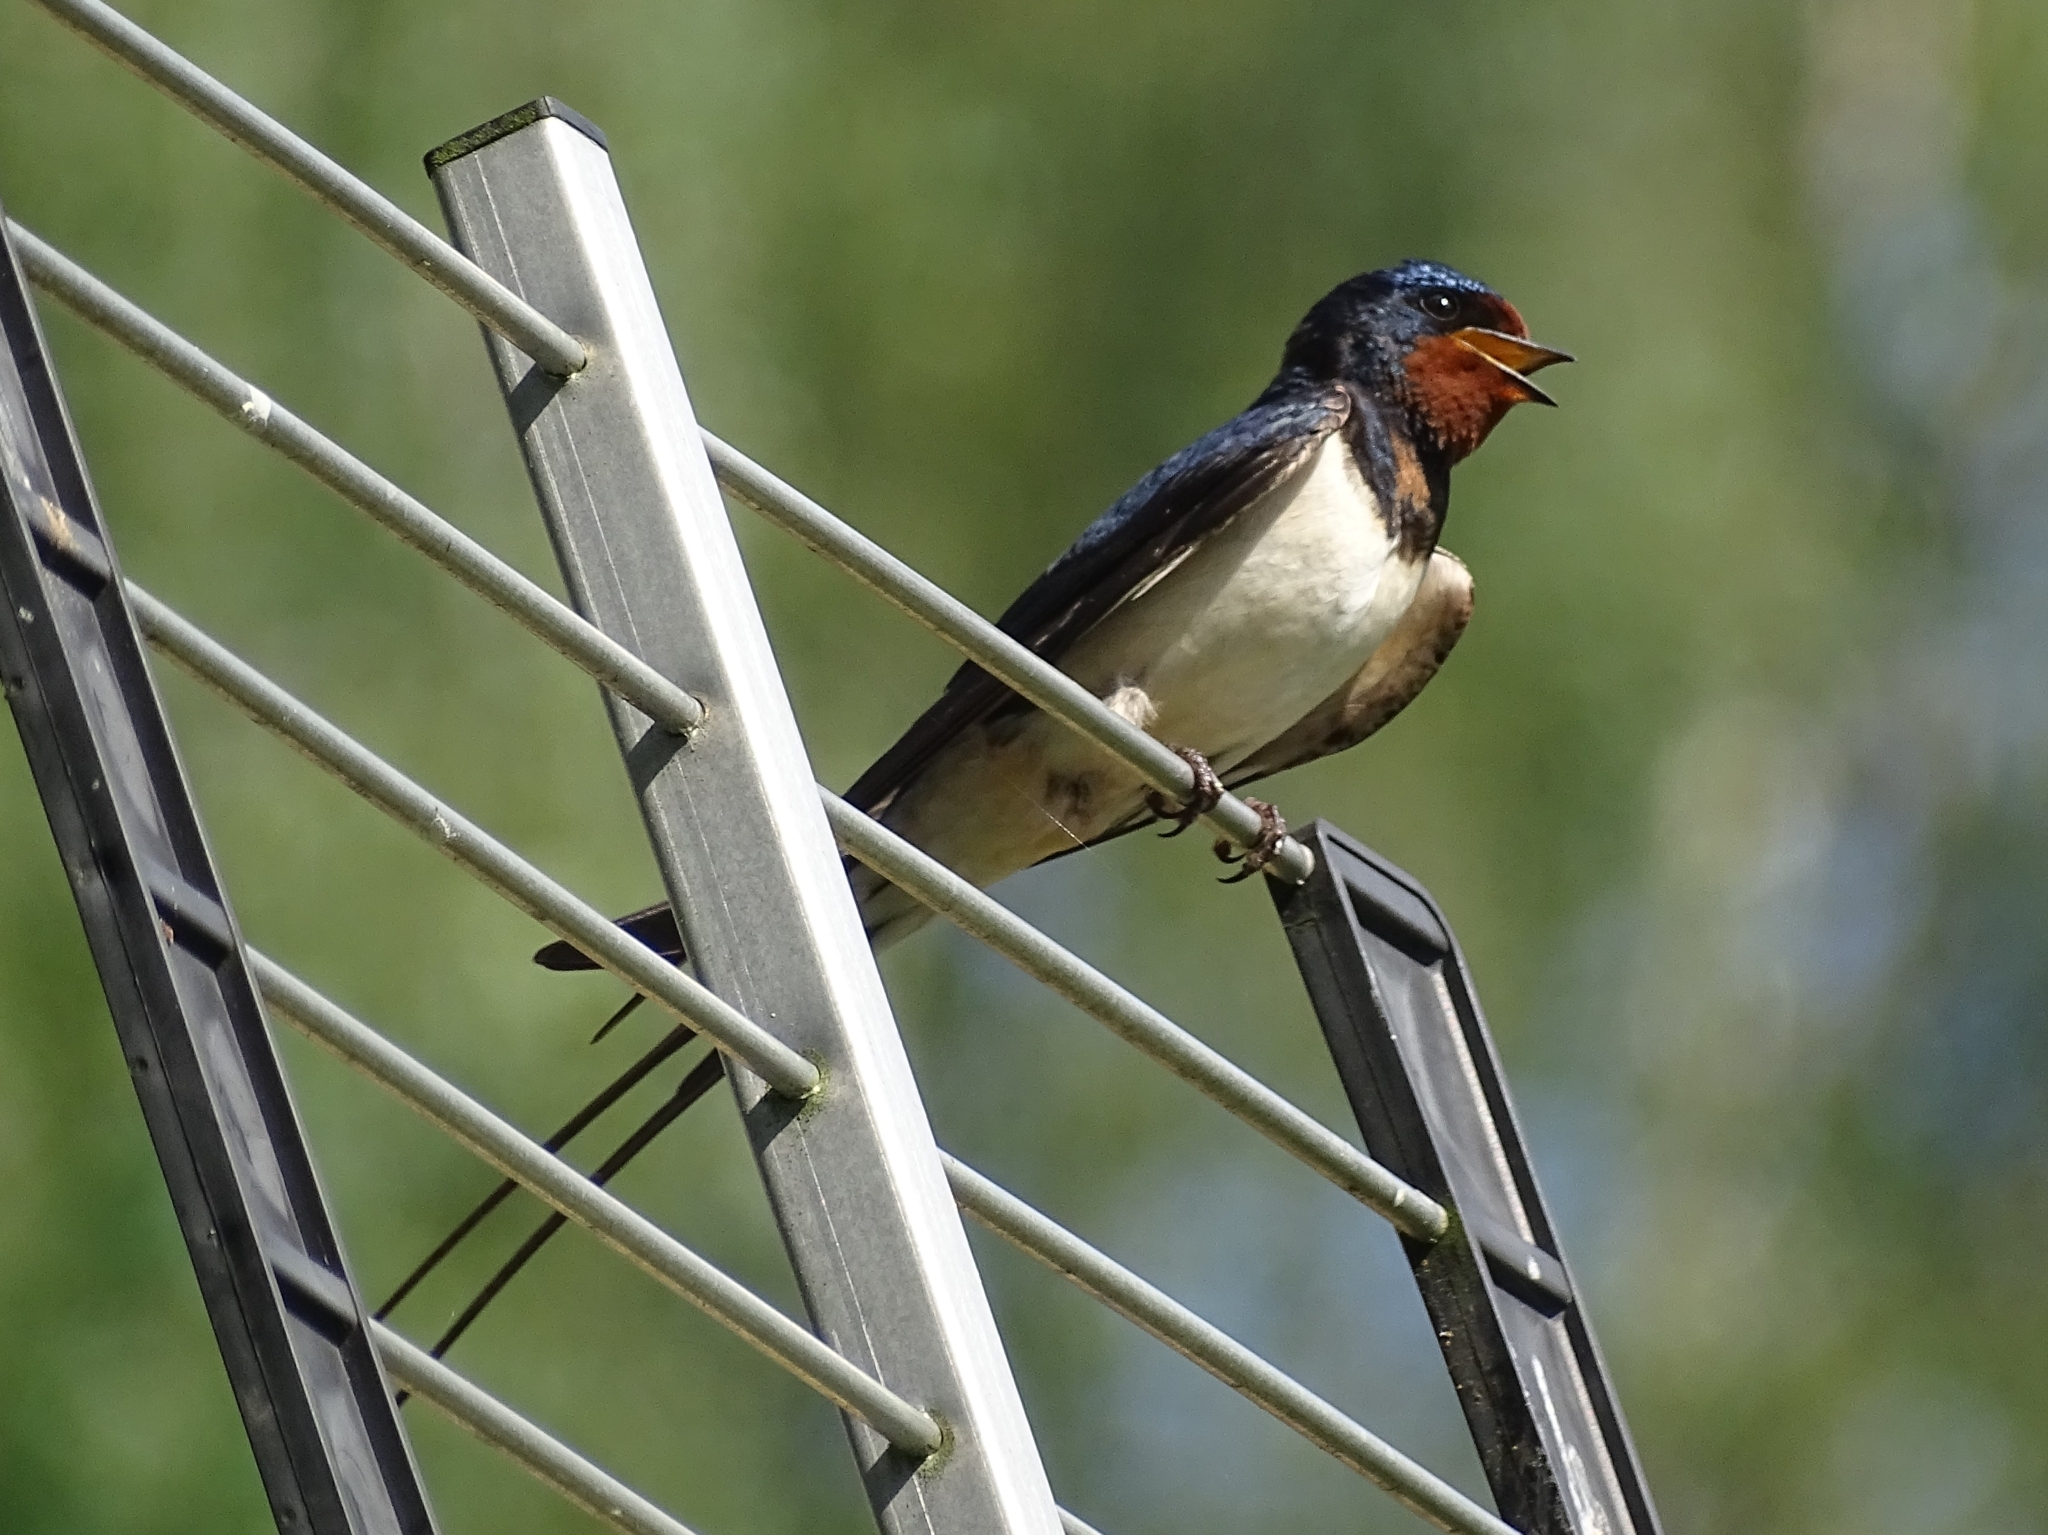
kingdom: Animalia
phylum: Chordata
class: Aves
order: Passeriformes
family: Hirundinidae
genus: Hirundo
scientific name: Hirundo rustica
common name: Barn swallow
